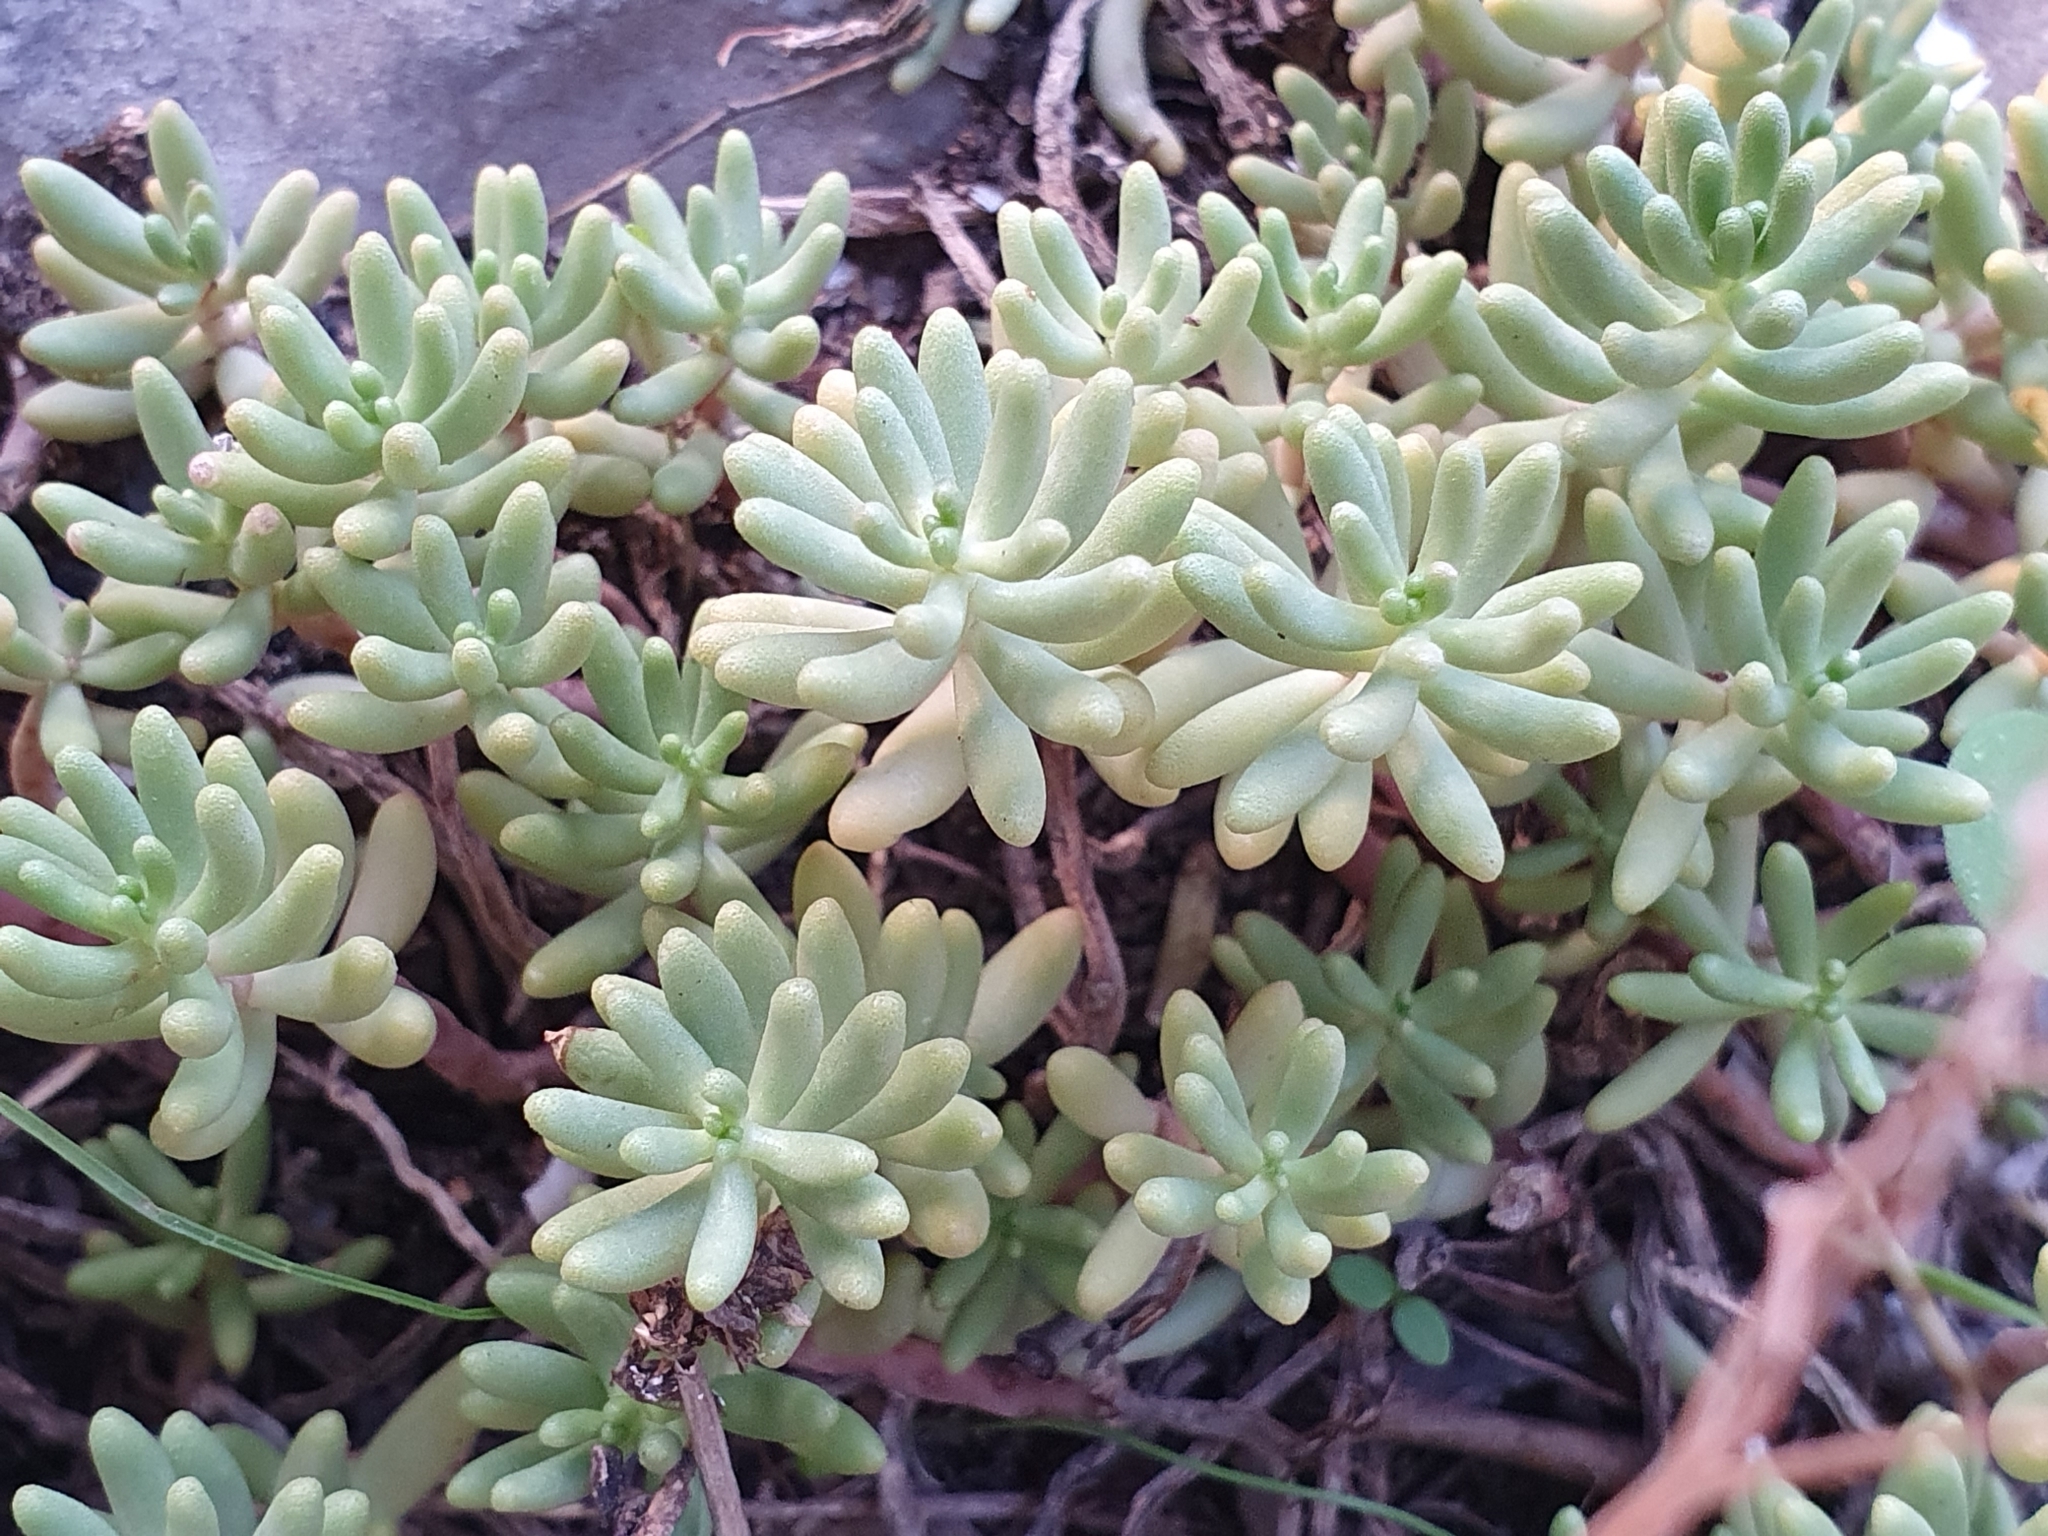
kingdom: Plantae
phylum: Tracheophyta
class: Magnoliopsida
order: Saxifragales
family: Crassulaceae
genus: Sedum
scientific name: Sedum album
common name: White stonecrop
